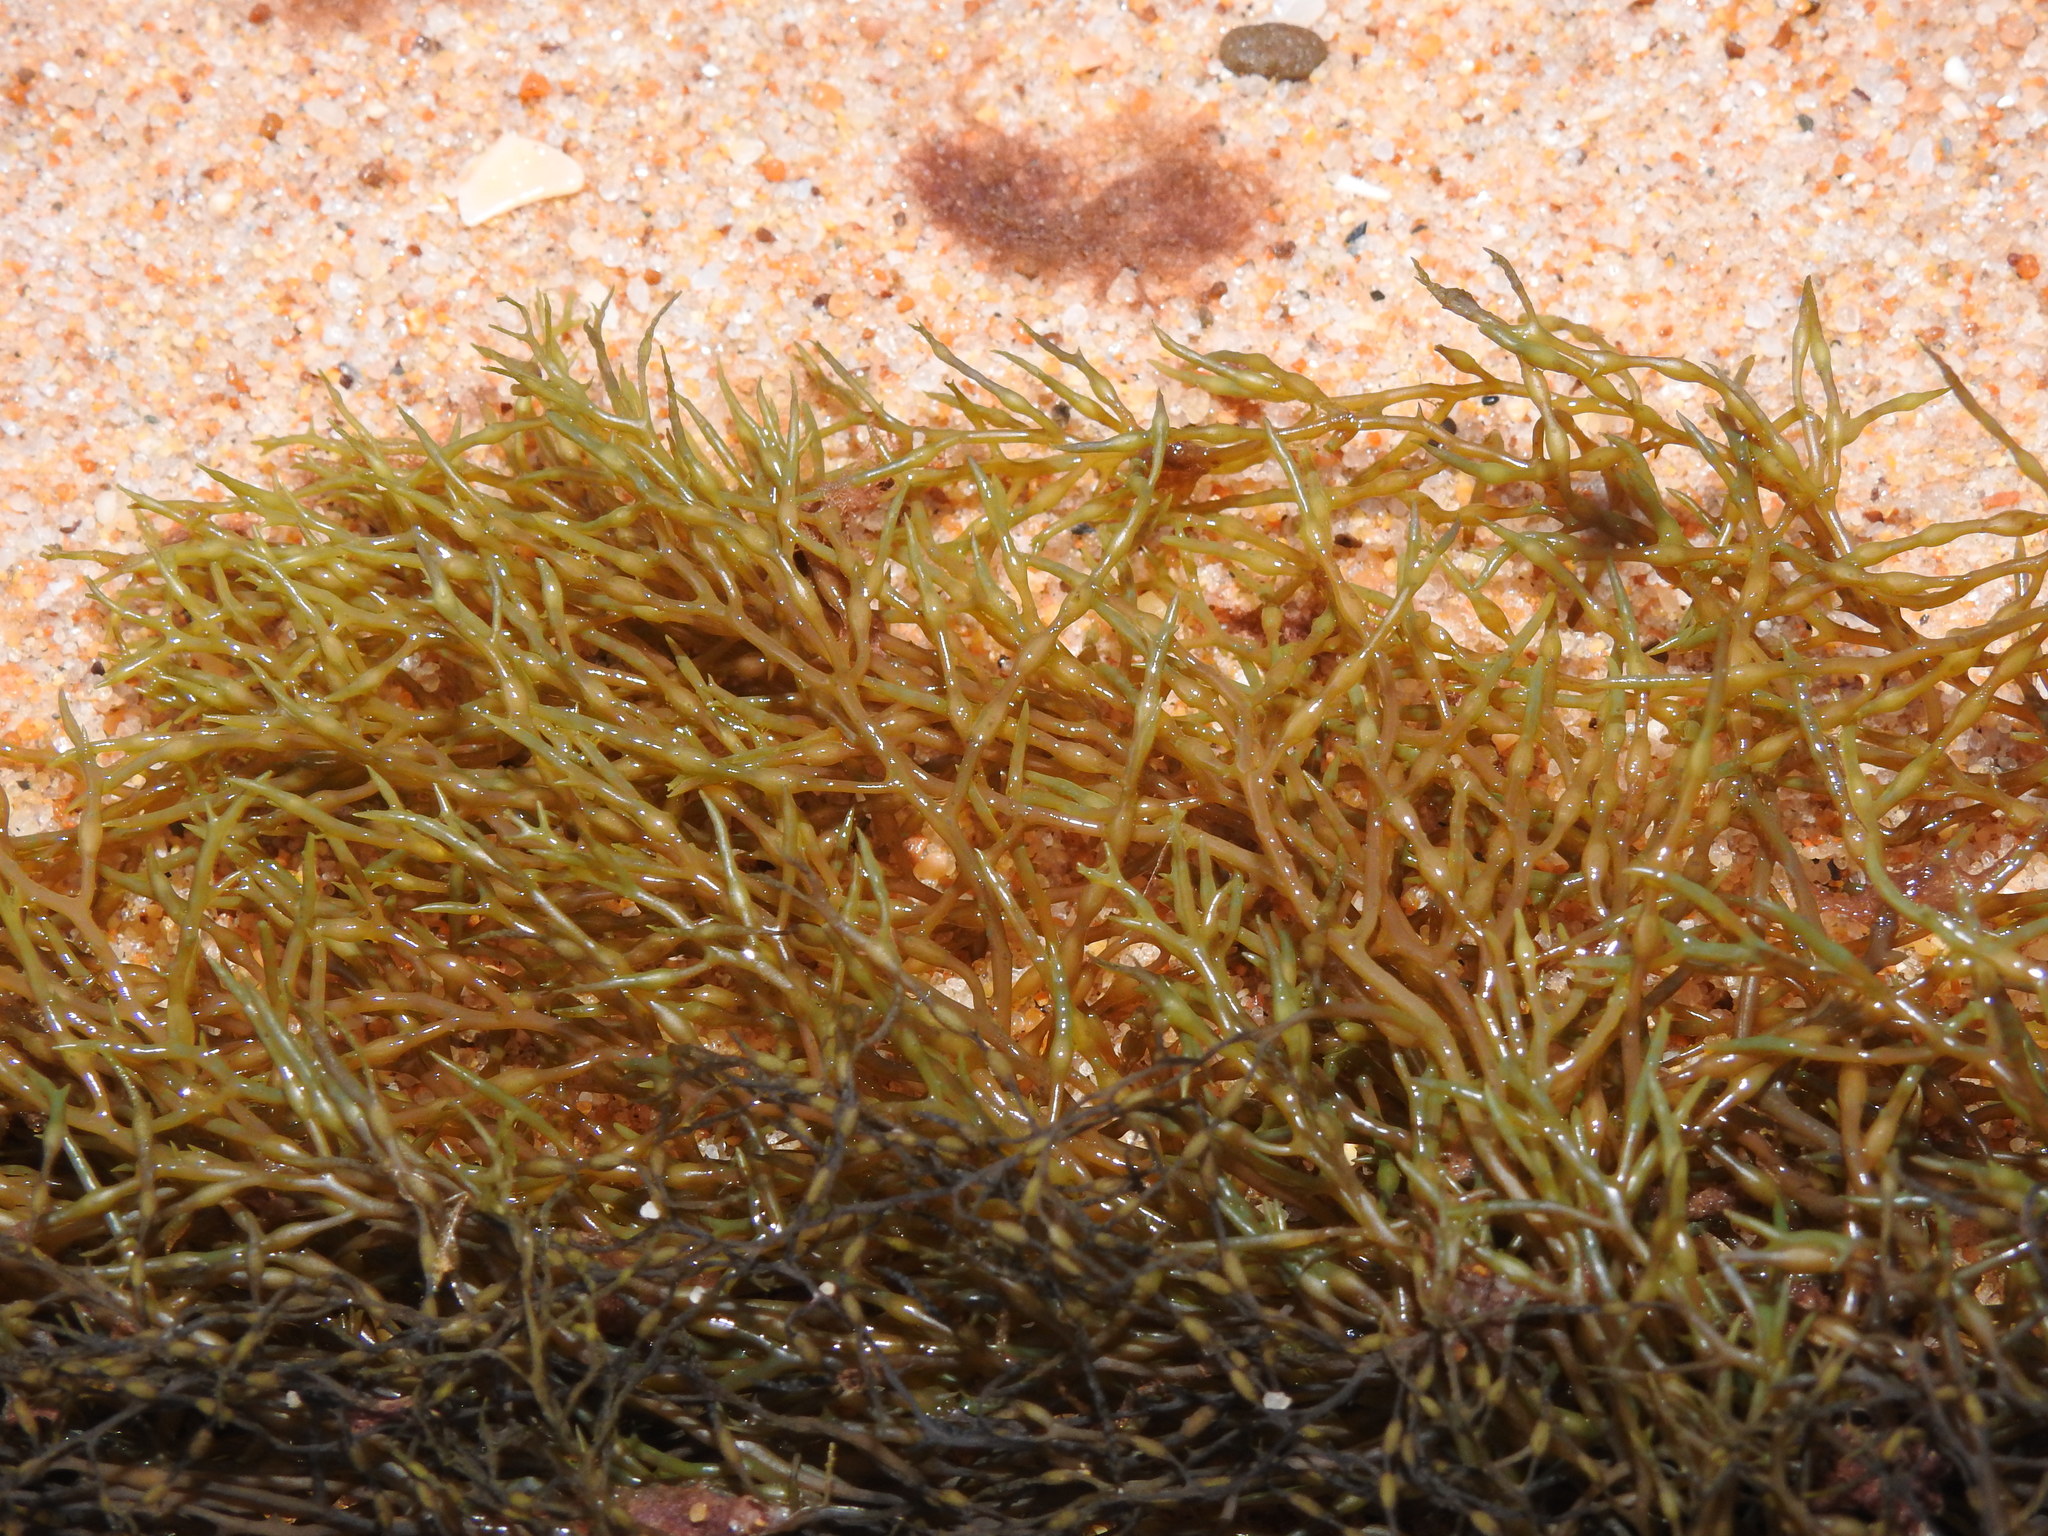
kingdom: Chromista
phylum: Ochrophyta
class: Phaeophyceae
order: Fucales
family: Sargassaceae
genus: Cystoseira
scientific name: Cystoseira Gongolaria usneoides
